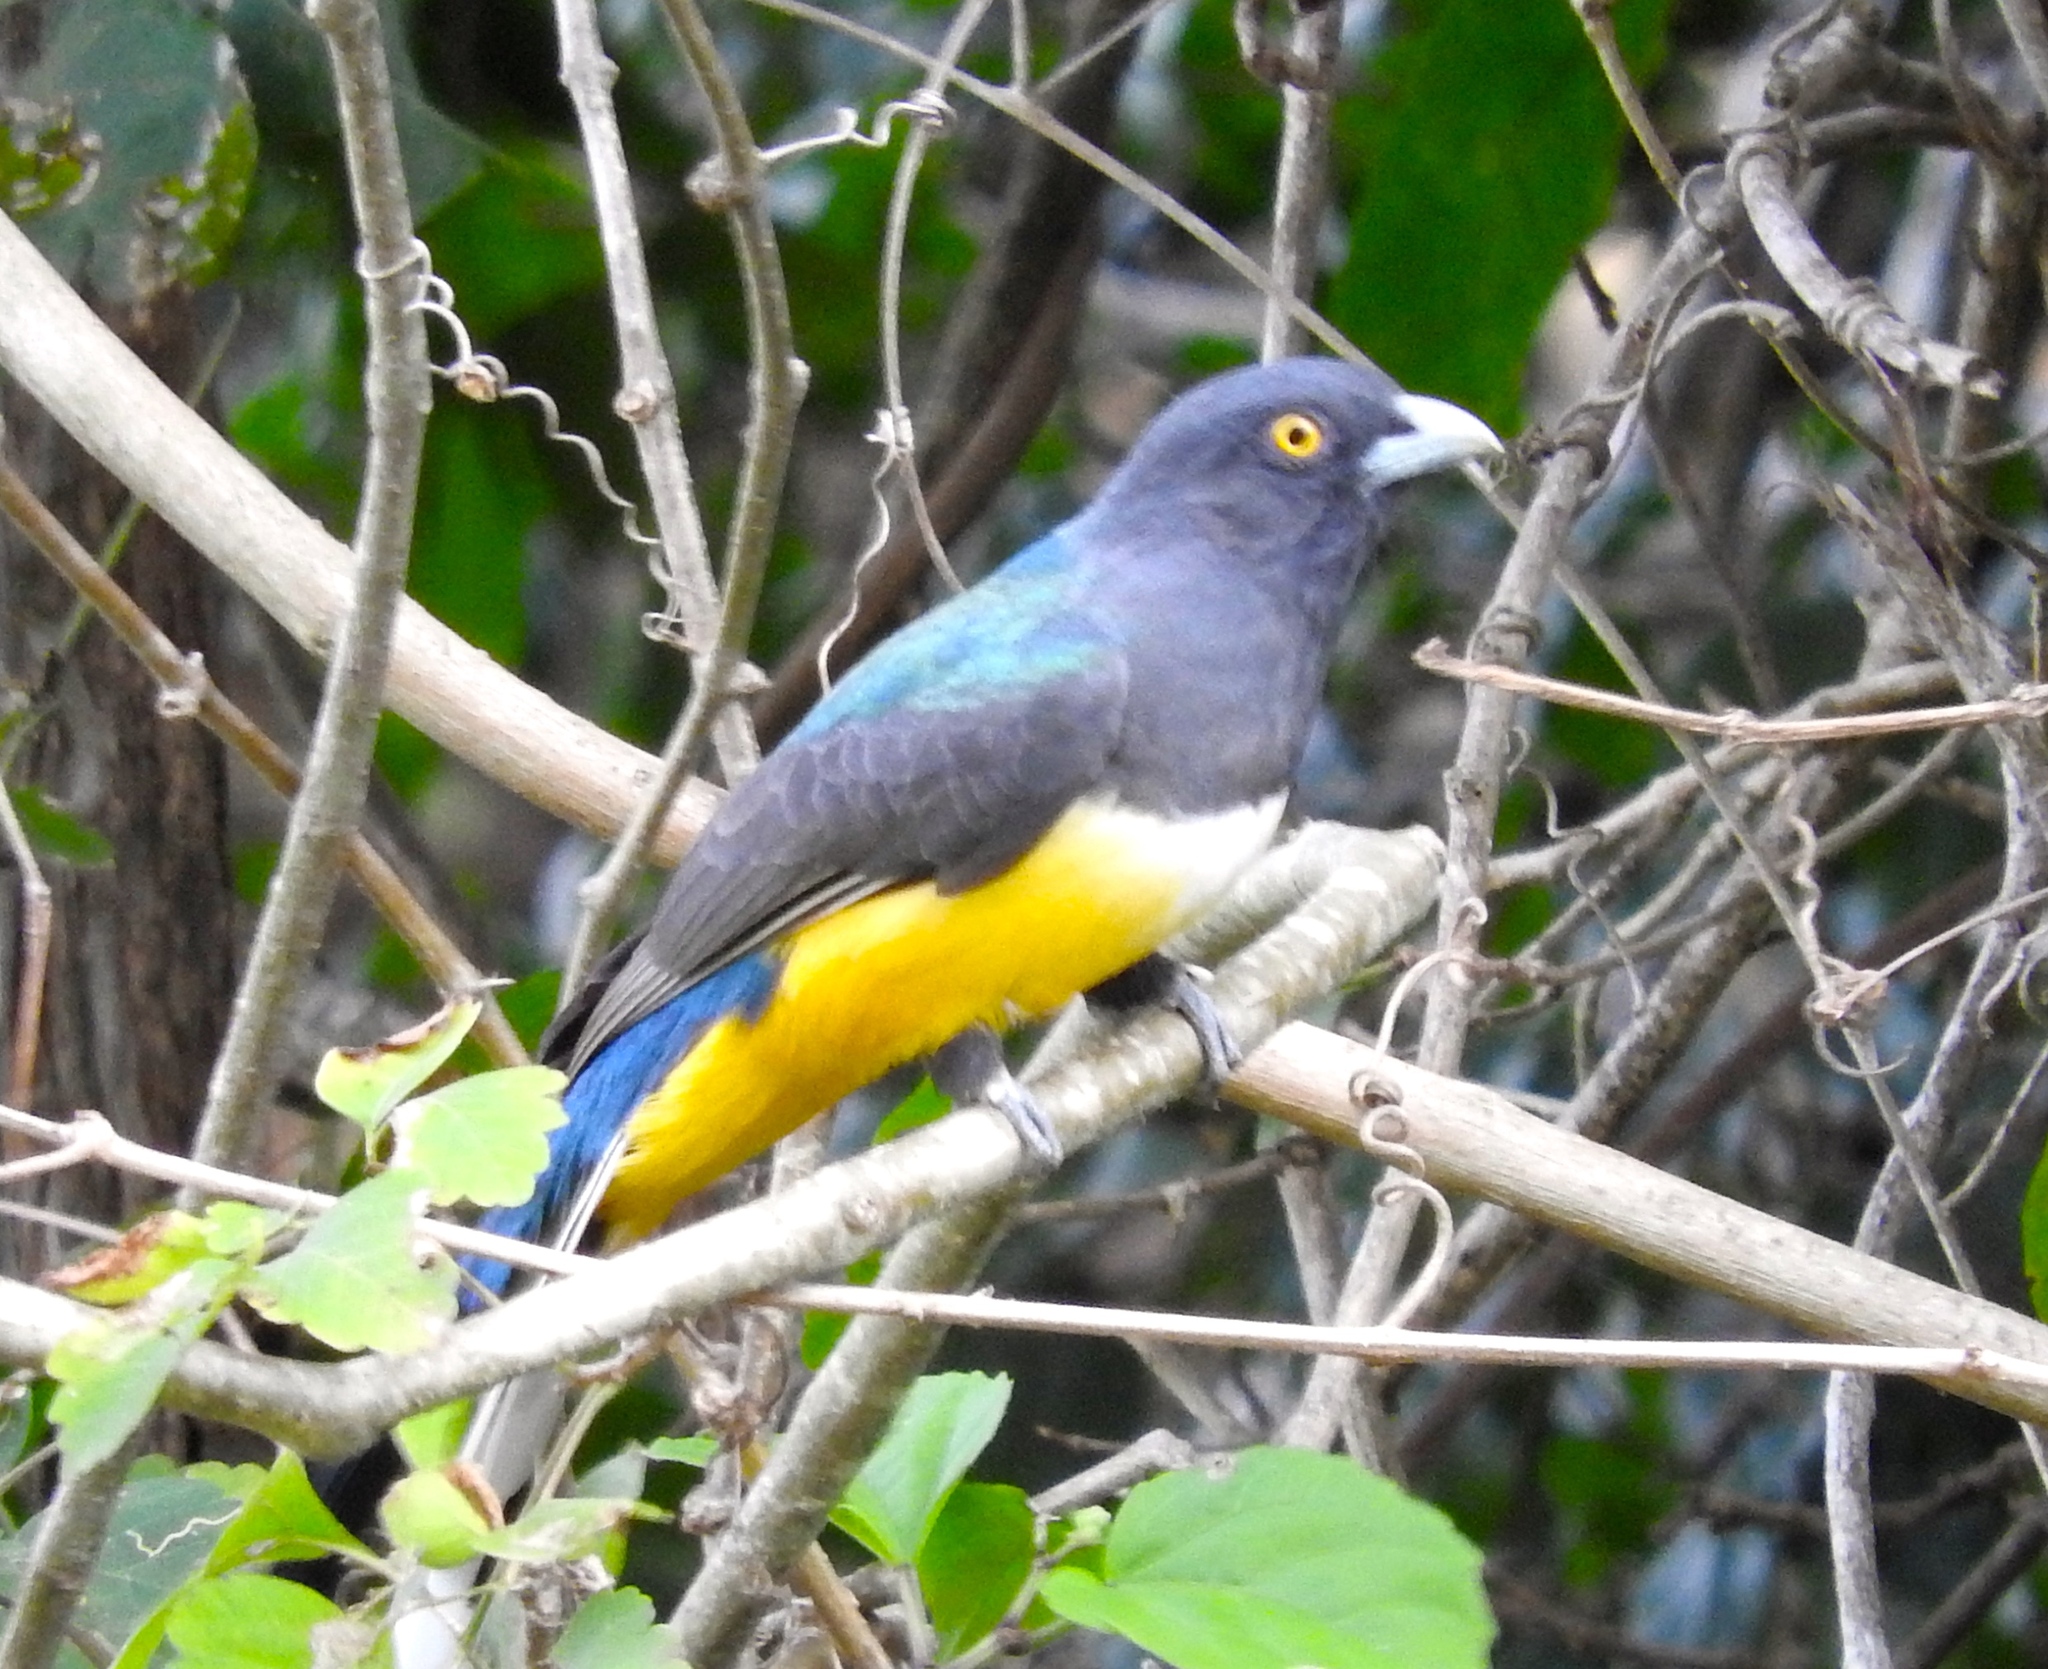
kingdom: Animalia
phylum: Chordata
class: Aves
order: Trogoniformes
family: Trogonidae
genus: Trogon
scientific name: Trogon citreolus
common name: Citreoline trogon
